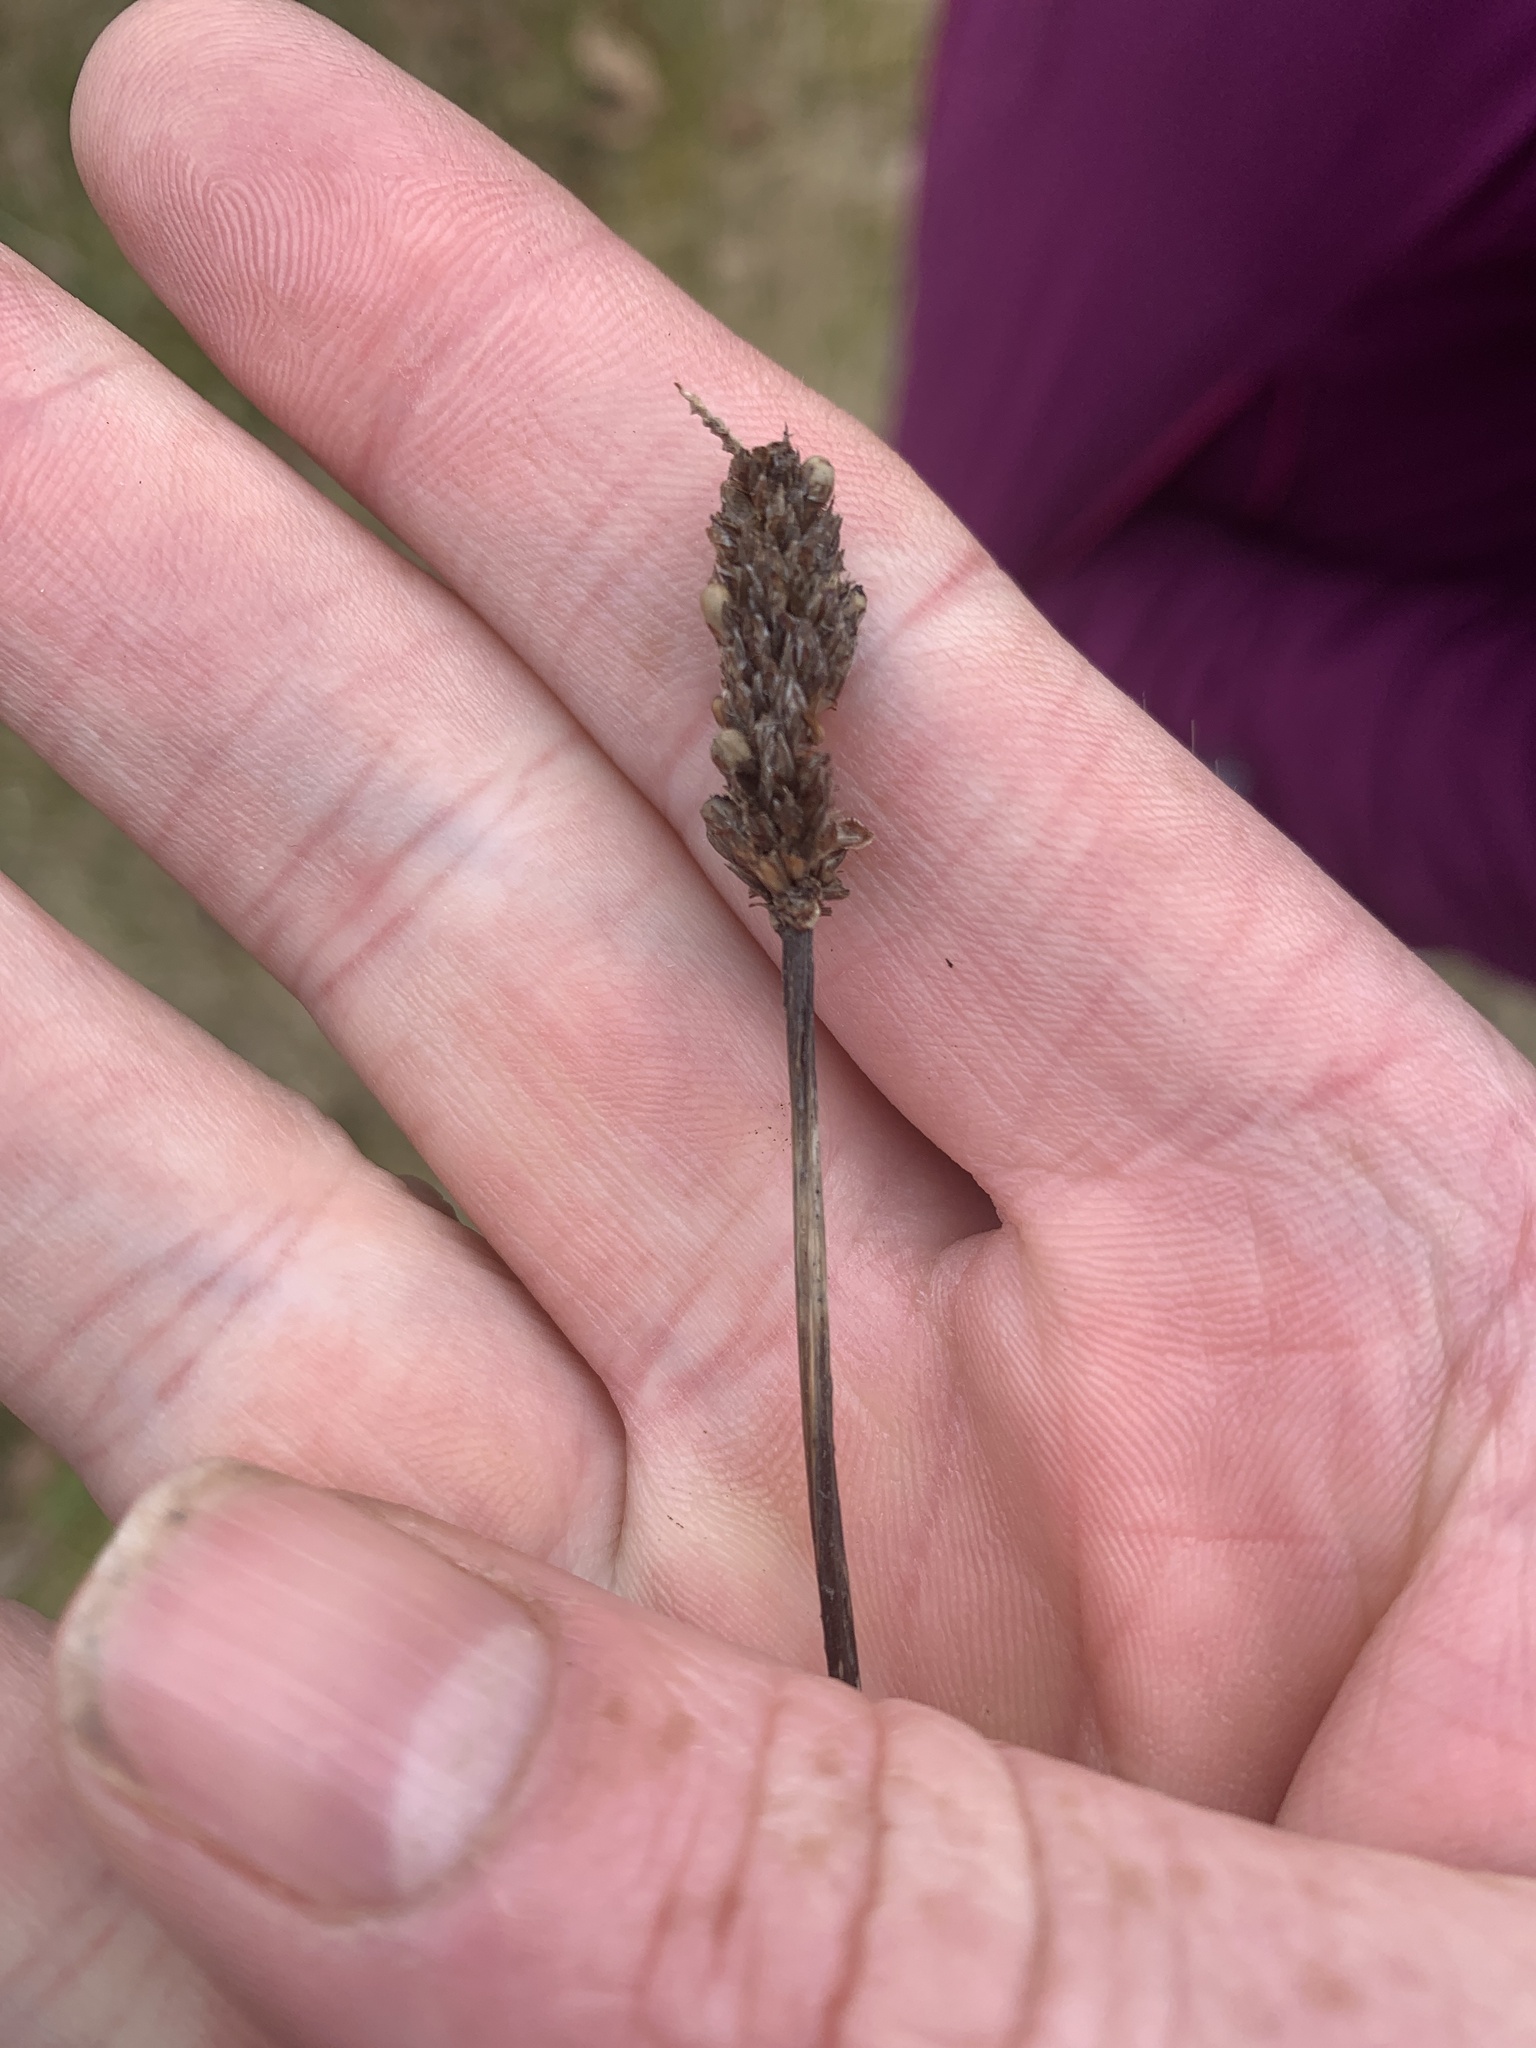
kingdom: Plantae
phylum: Tracheophyta
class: Magnoliopsida
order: Lamiales
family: Plantaginaceae
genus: Plantago
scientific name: Plantago lanceolata
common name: Ribwort plantain
